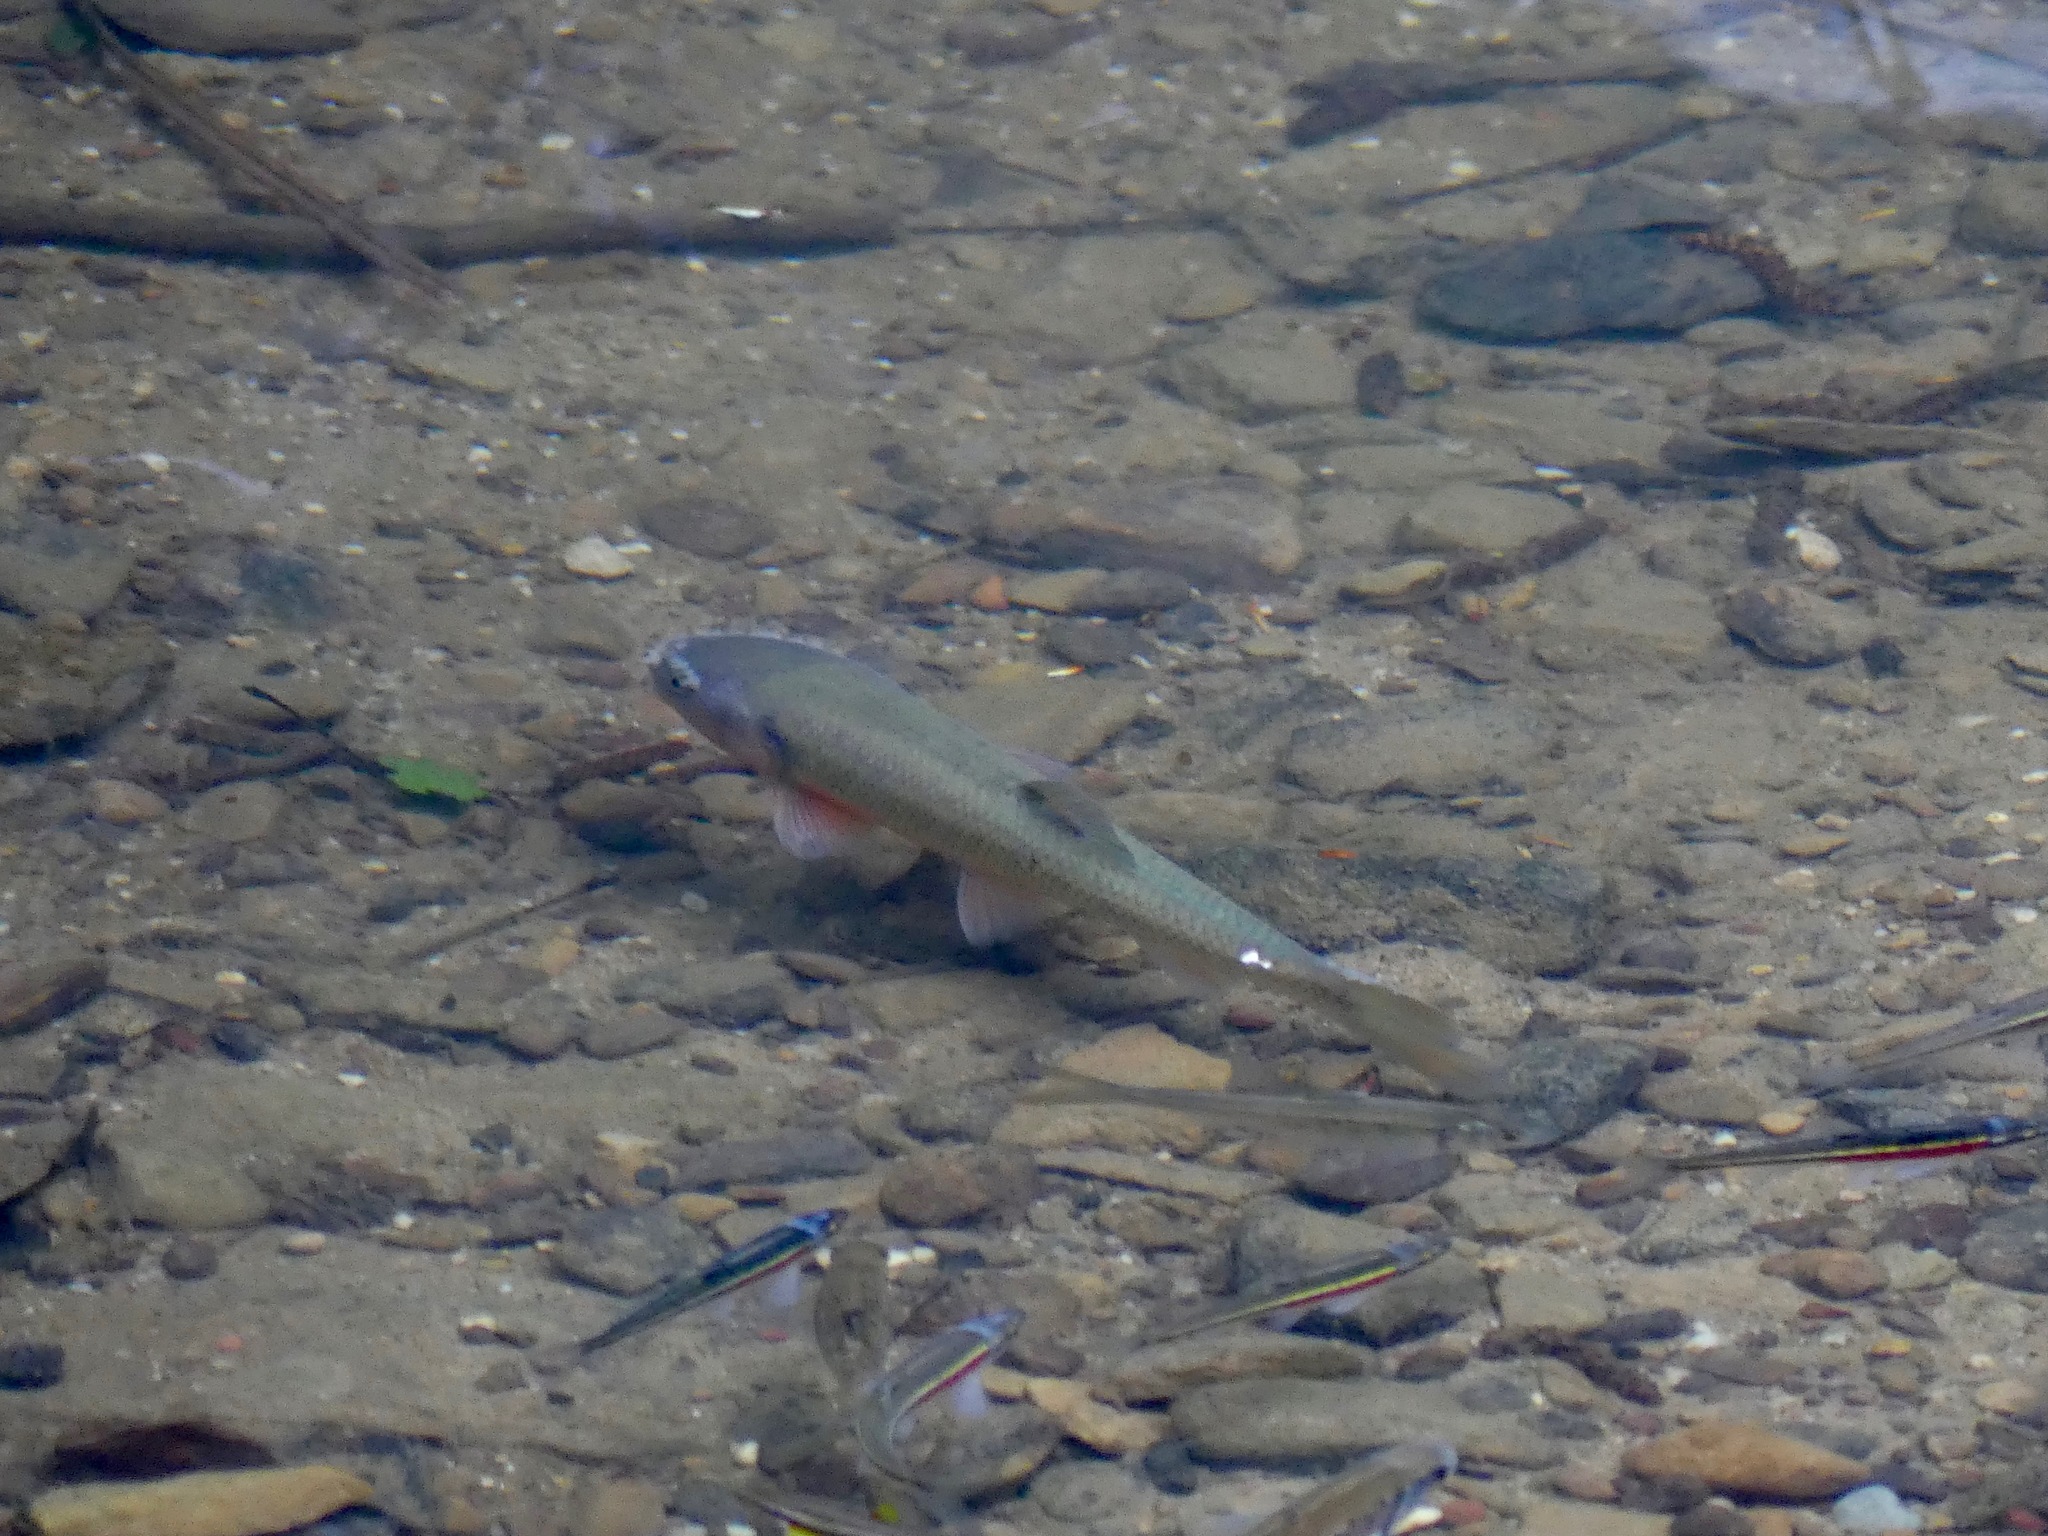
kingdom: Animalia
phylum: Chordata
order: Cypriniformes
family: Cyprinidae
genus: Semotilus
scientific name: Semotilus atromaculatus
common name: Creek chub
